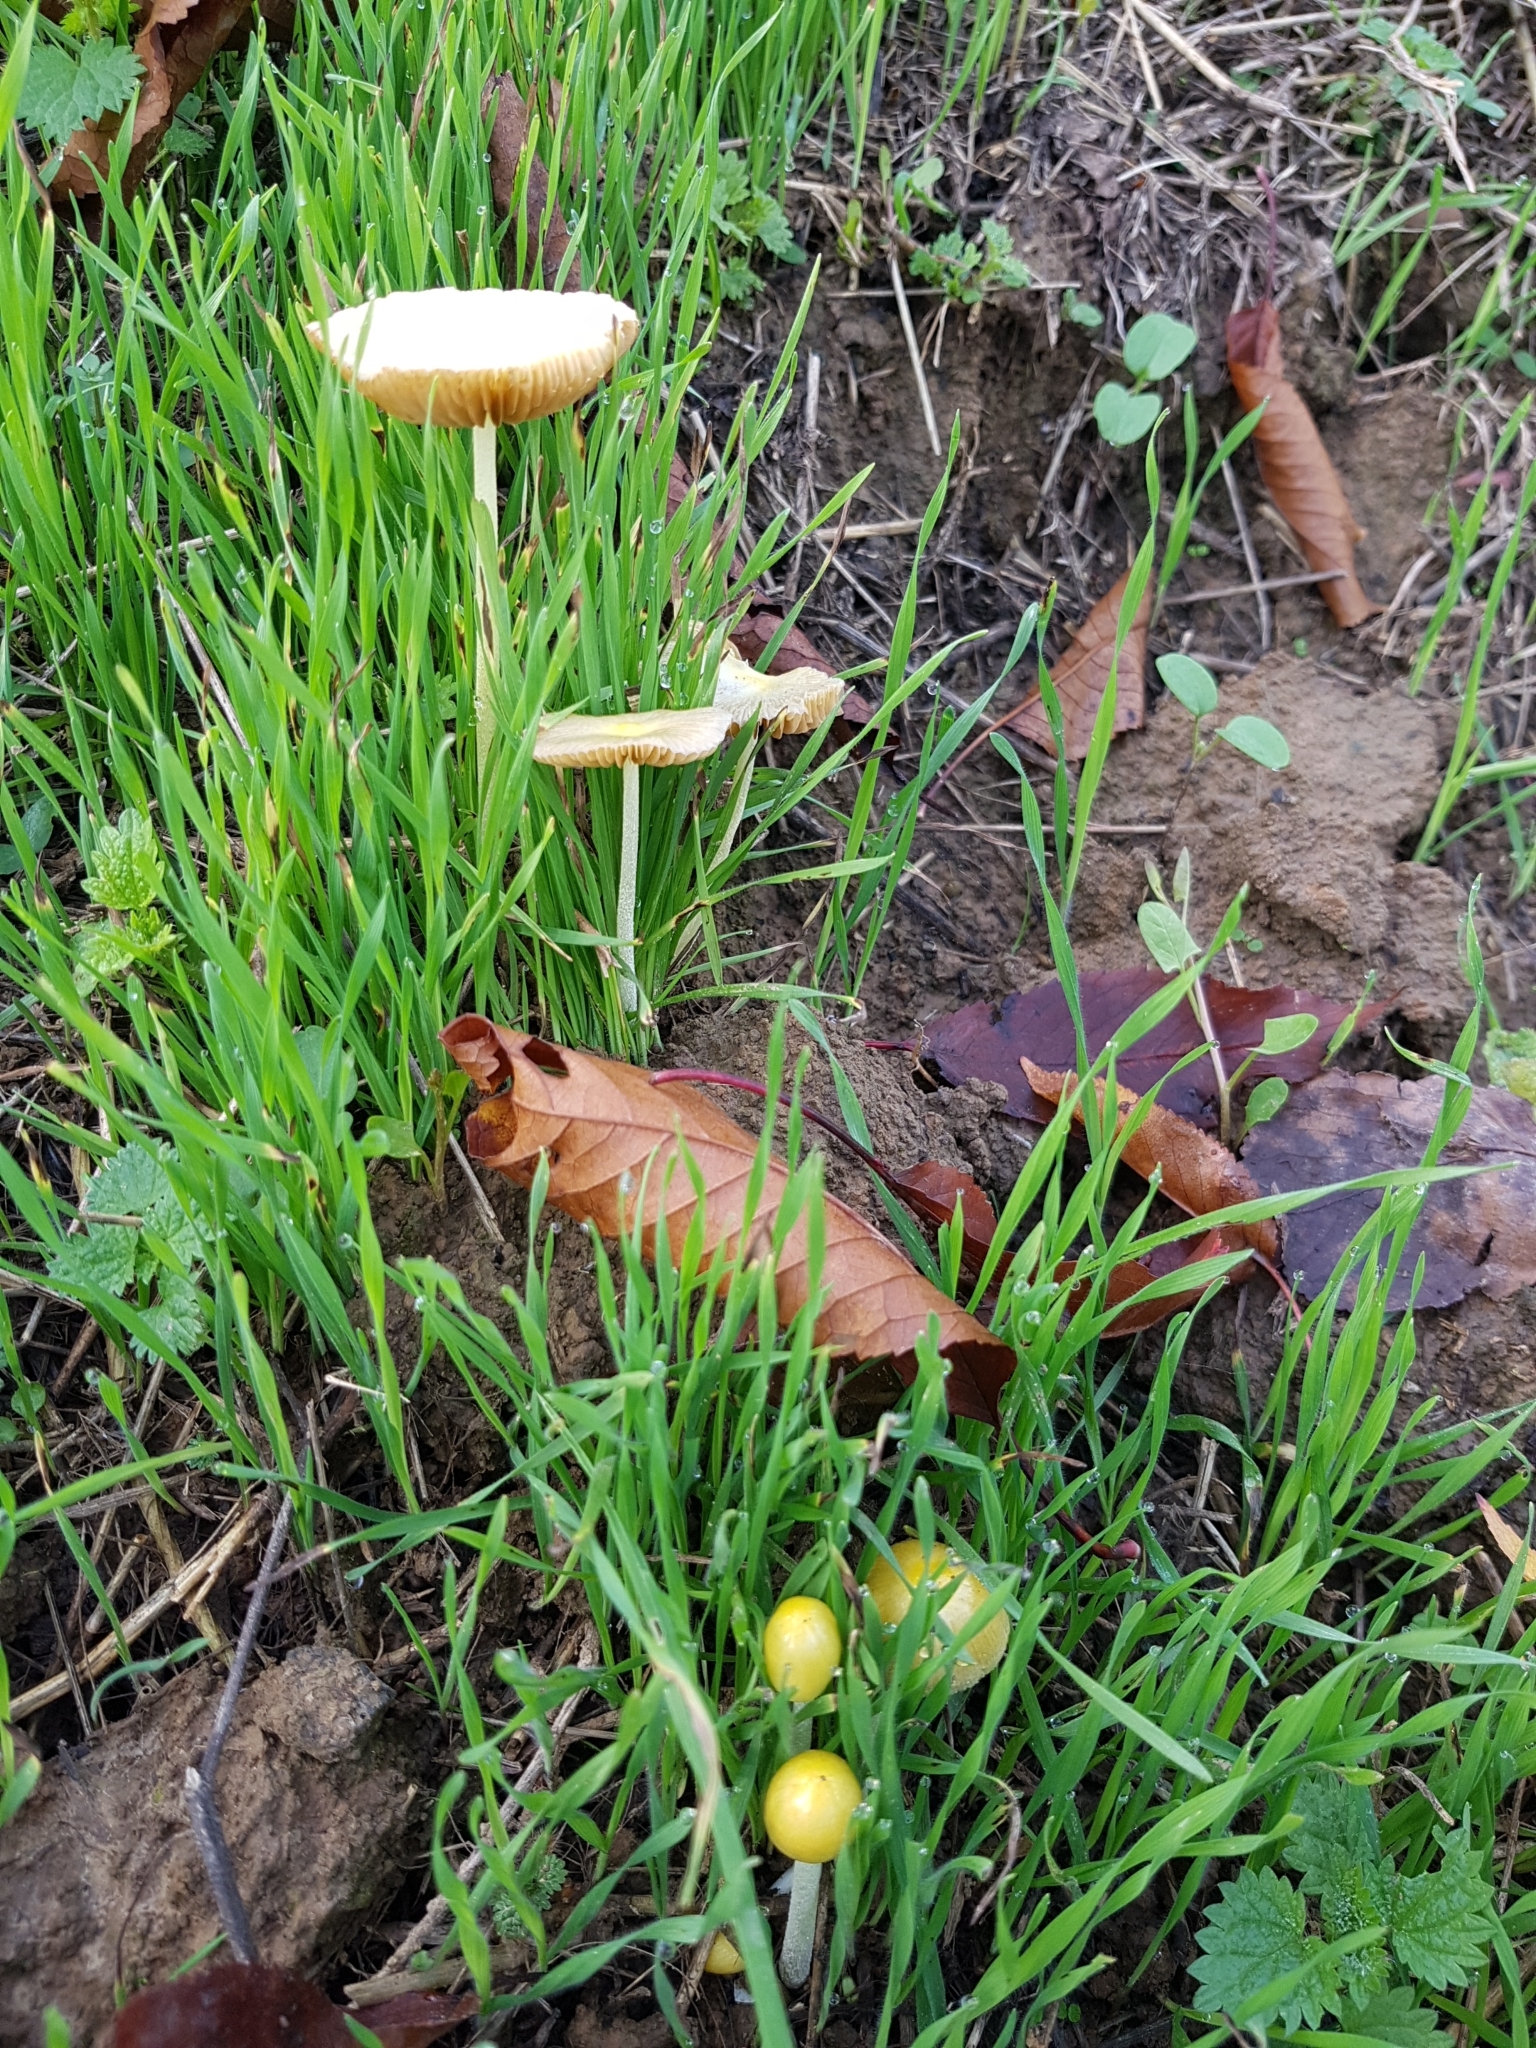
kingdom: Fungi
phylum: Basidiomycota
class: Agaricomycetes
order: Agaricales
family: Bolbitiaceae
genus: Bolbitius
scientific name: Bolbitius titubans
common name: Yellow fieldcap
